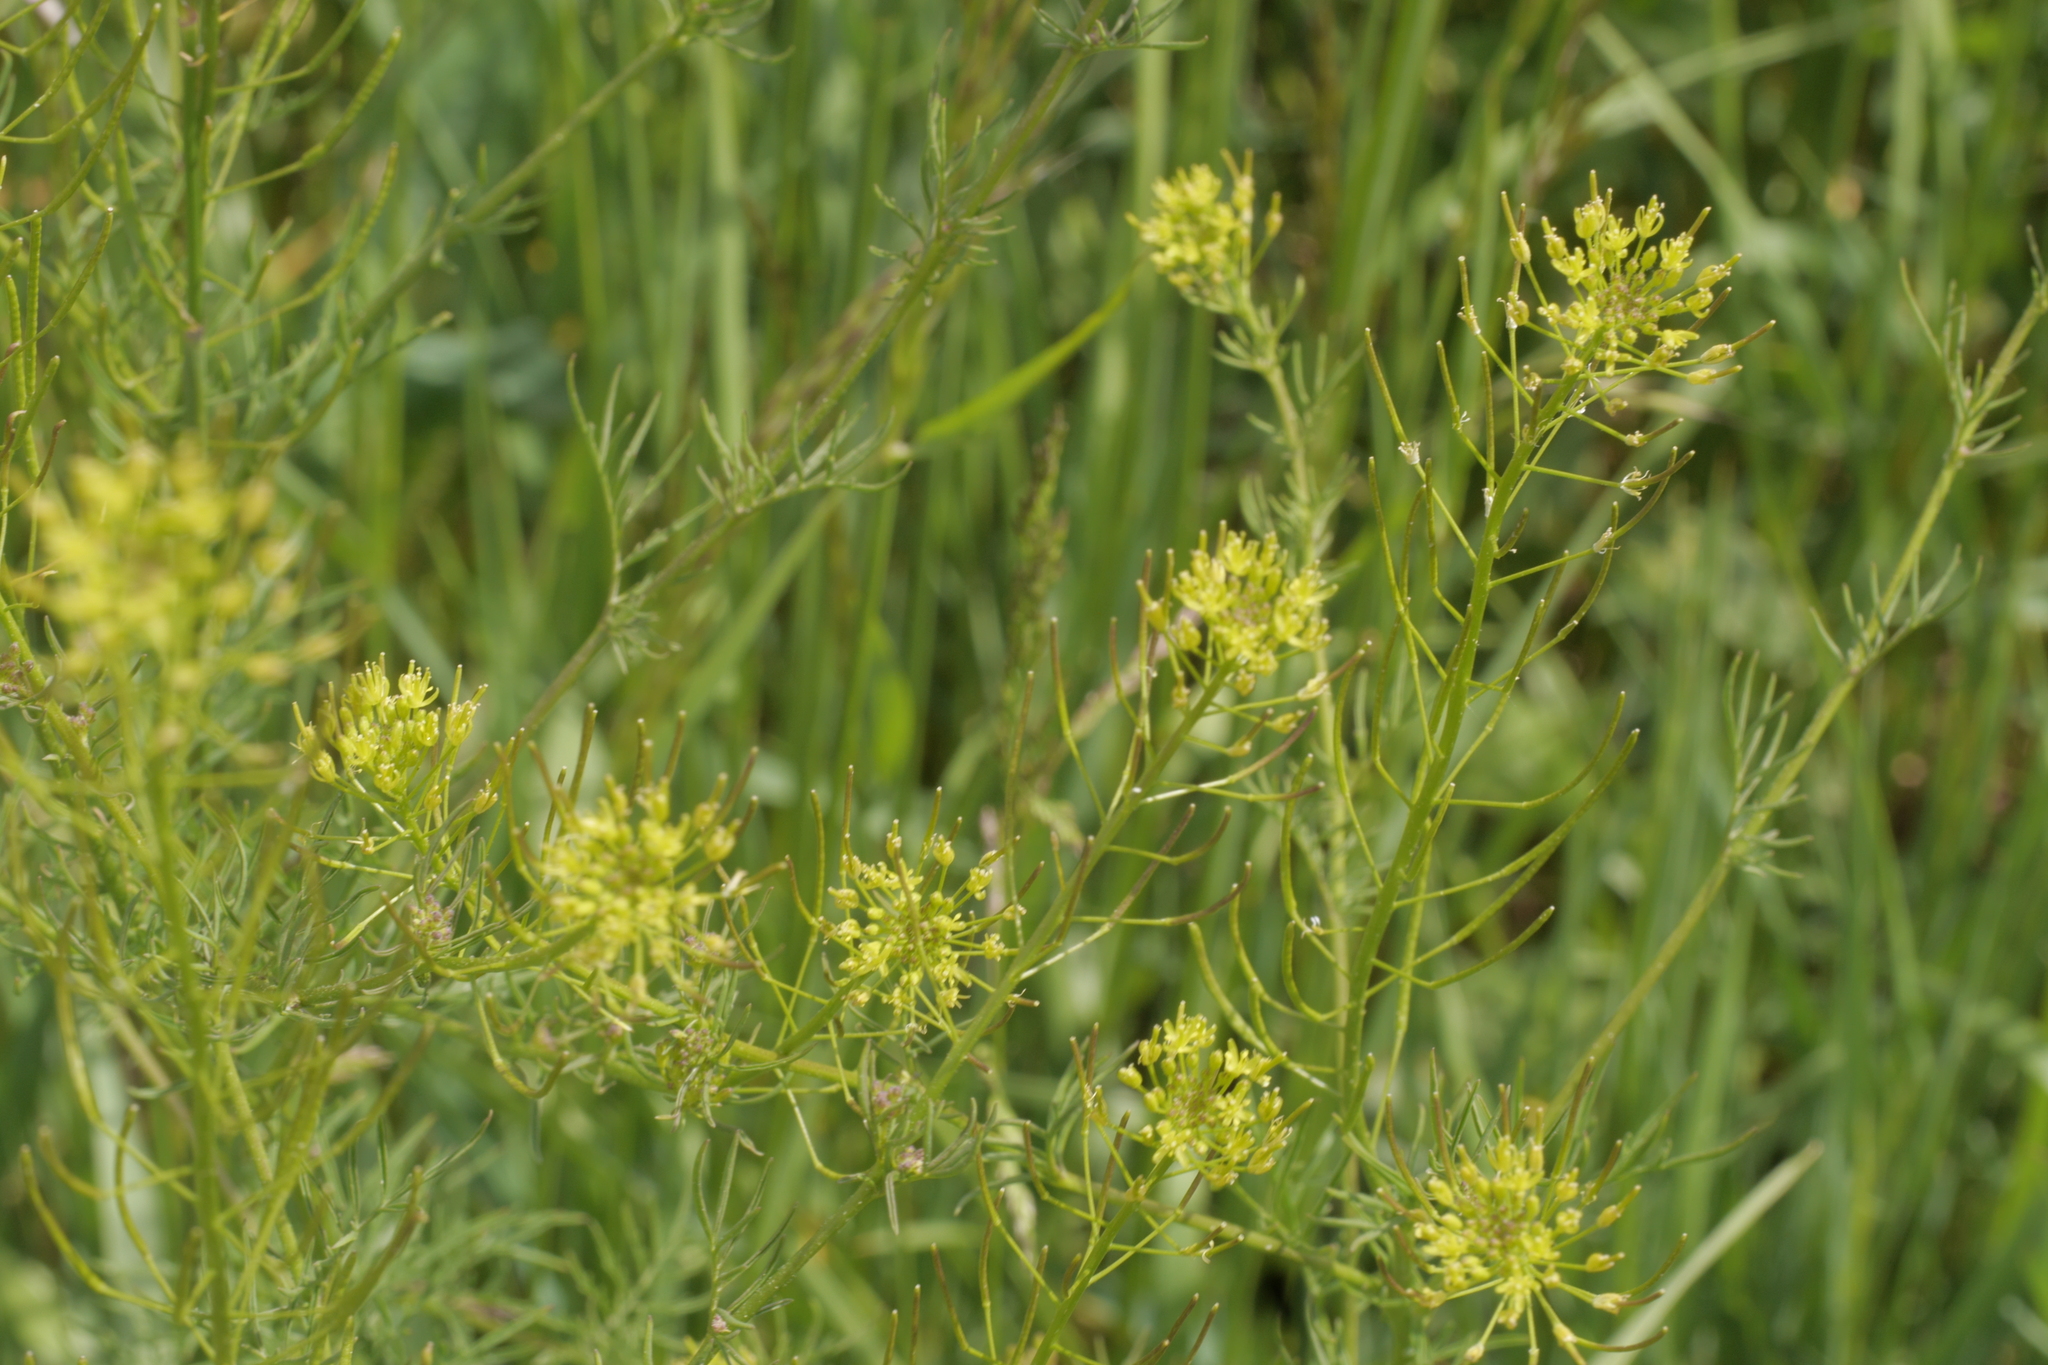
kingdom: Plantae
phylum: Tracheophyta
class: Magnoliopsida
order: Brassicales
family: Brassicaceae
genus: Descurainia
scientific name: Descurainia sophia
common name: Flixweed
